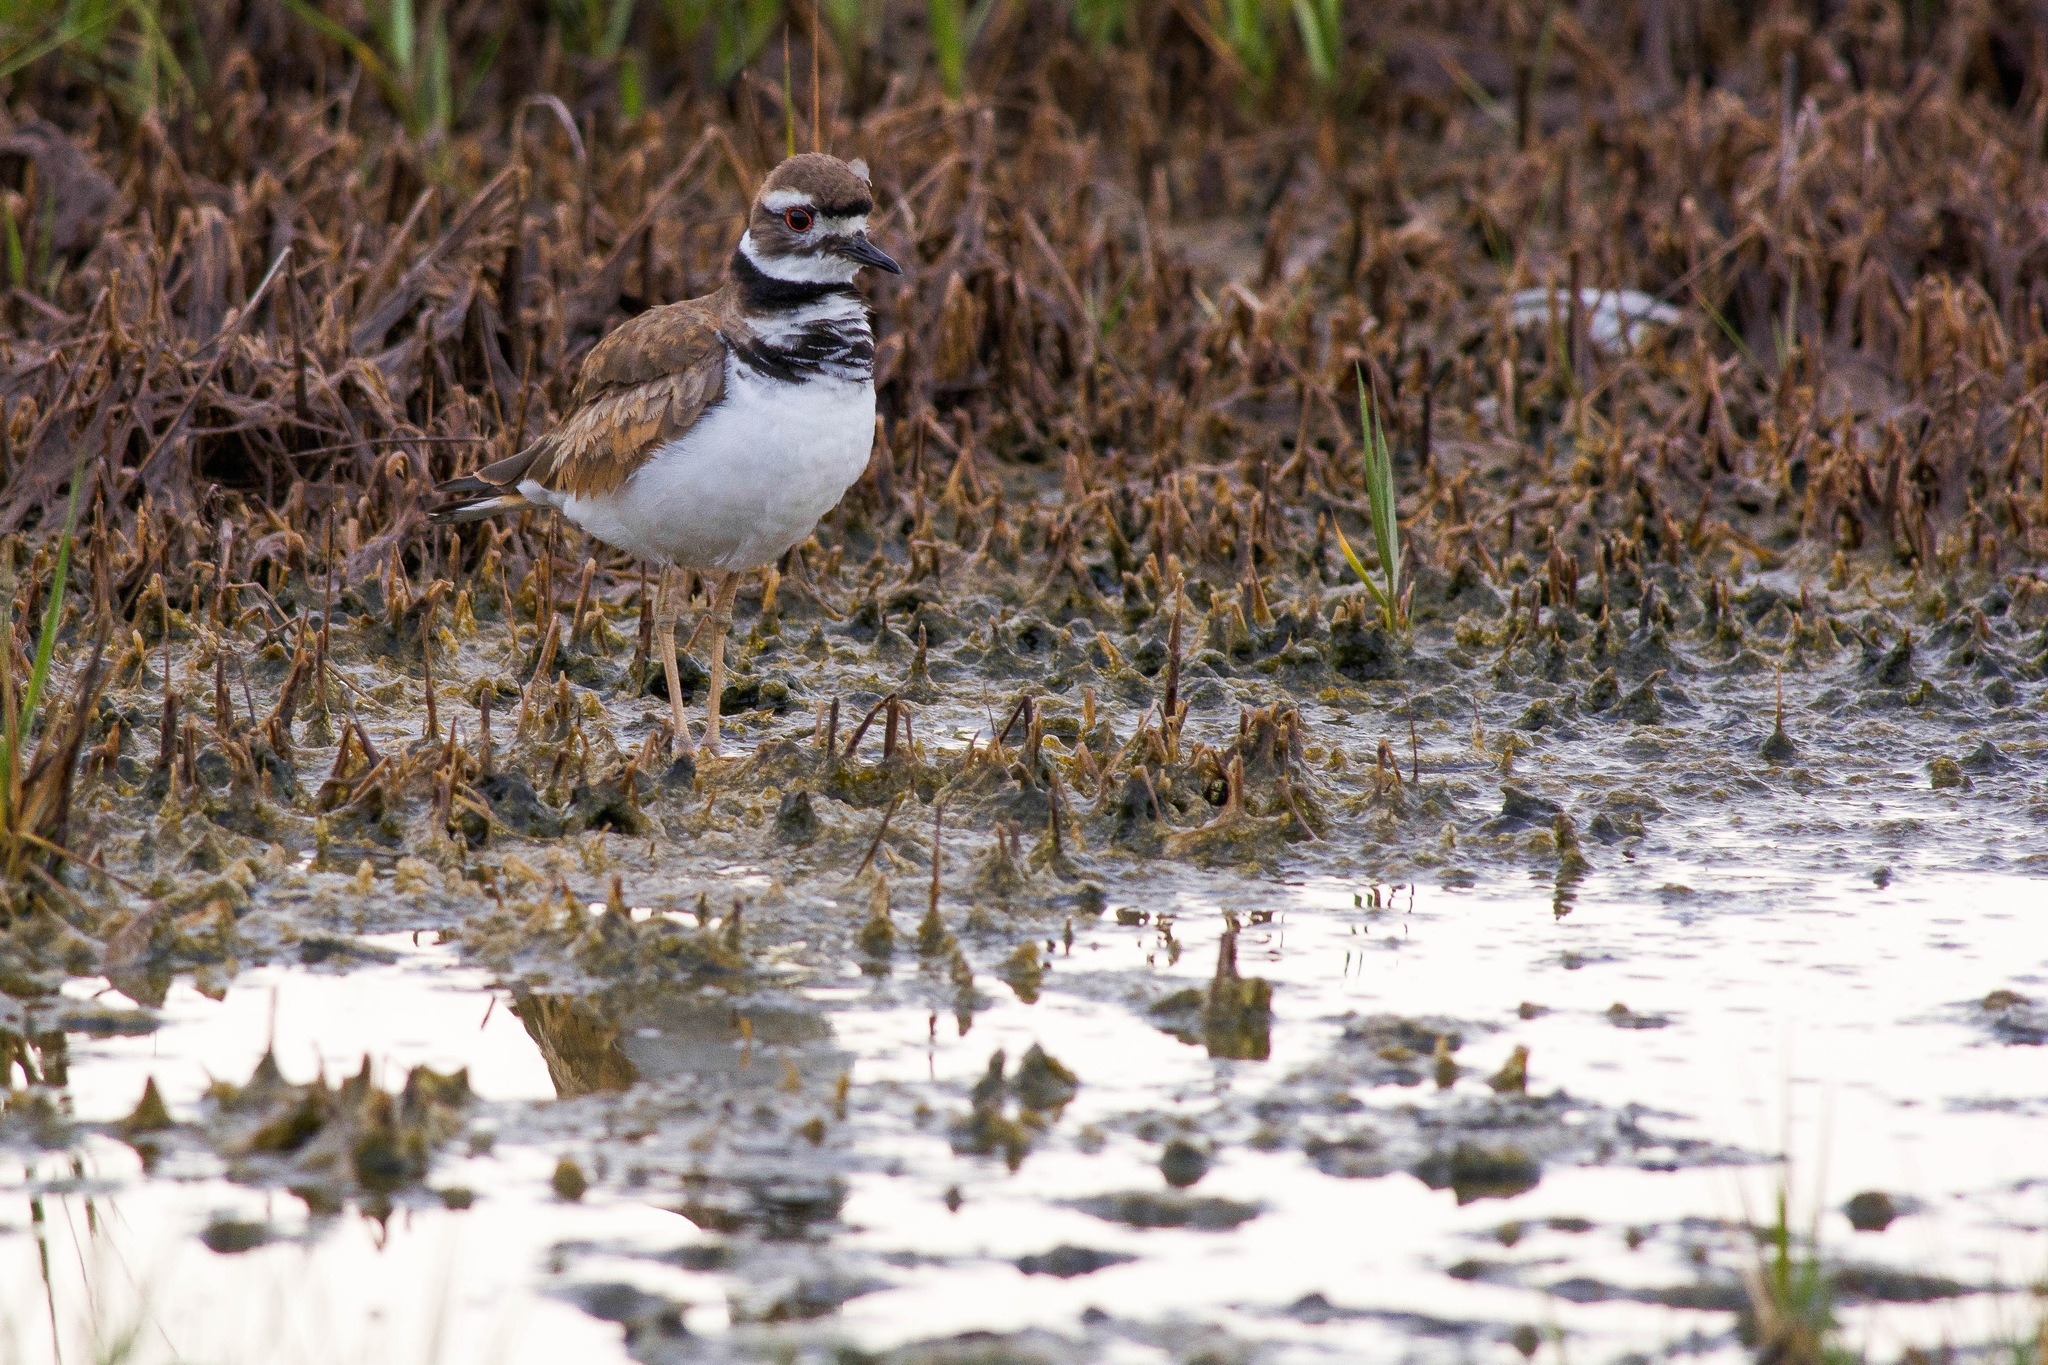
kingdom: Animalia
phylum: Chordata
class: Aves
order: Charadriiformes
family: Charadriidae
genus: Charadrius
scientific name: Charadrius vociferus
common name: Killdeer
